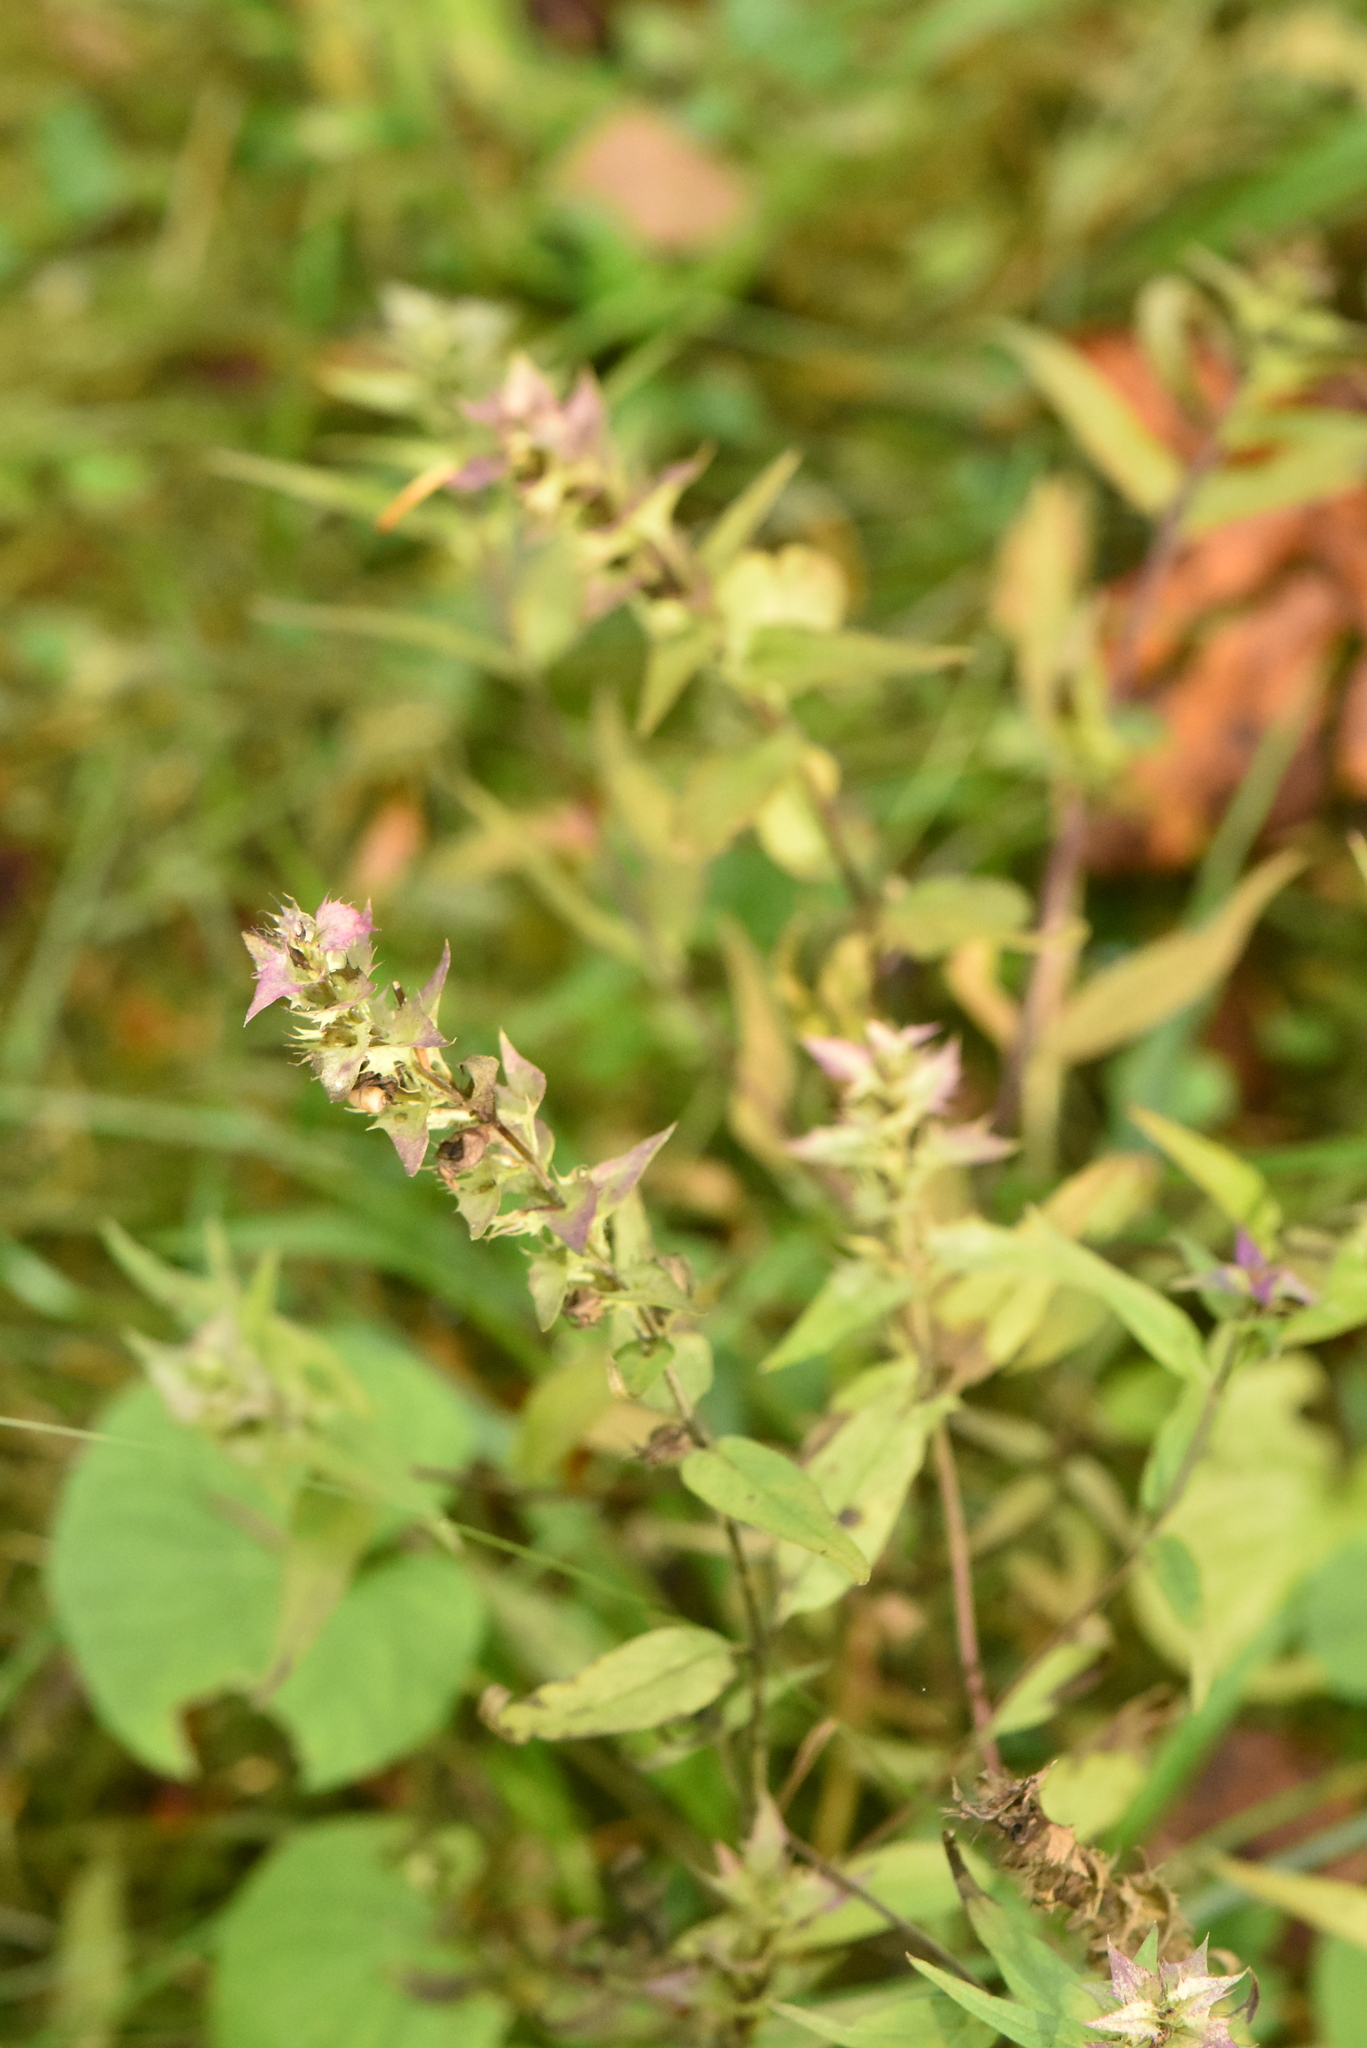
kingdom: Plantae
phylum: Tracheophyta
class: Magnoliopsida
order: Lamiales
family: Orobanchaceae
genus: Melampyrum
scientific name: Melampyrum nemorosum
